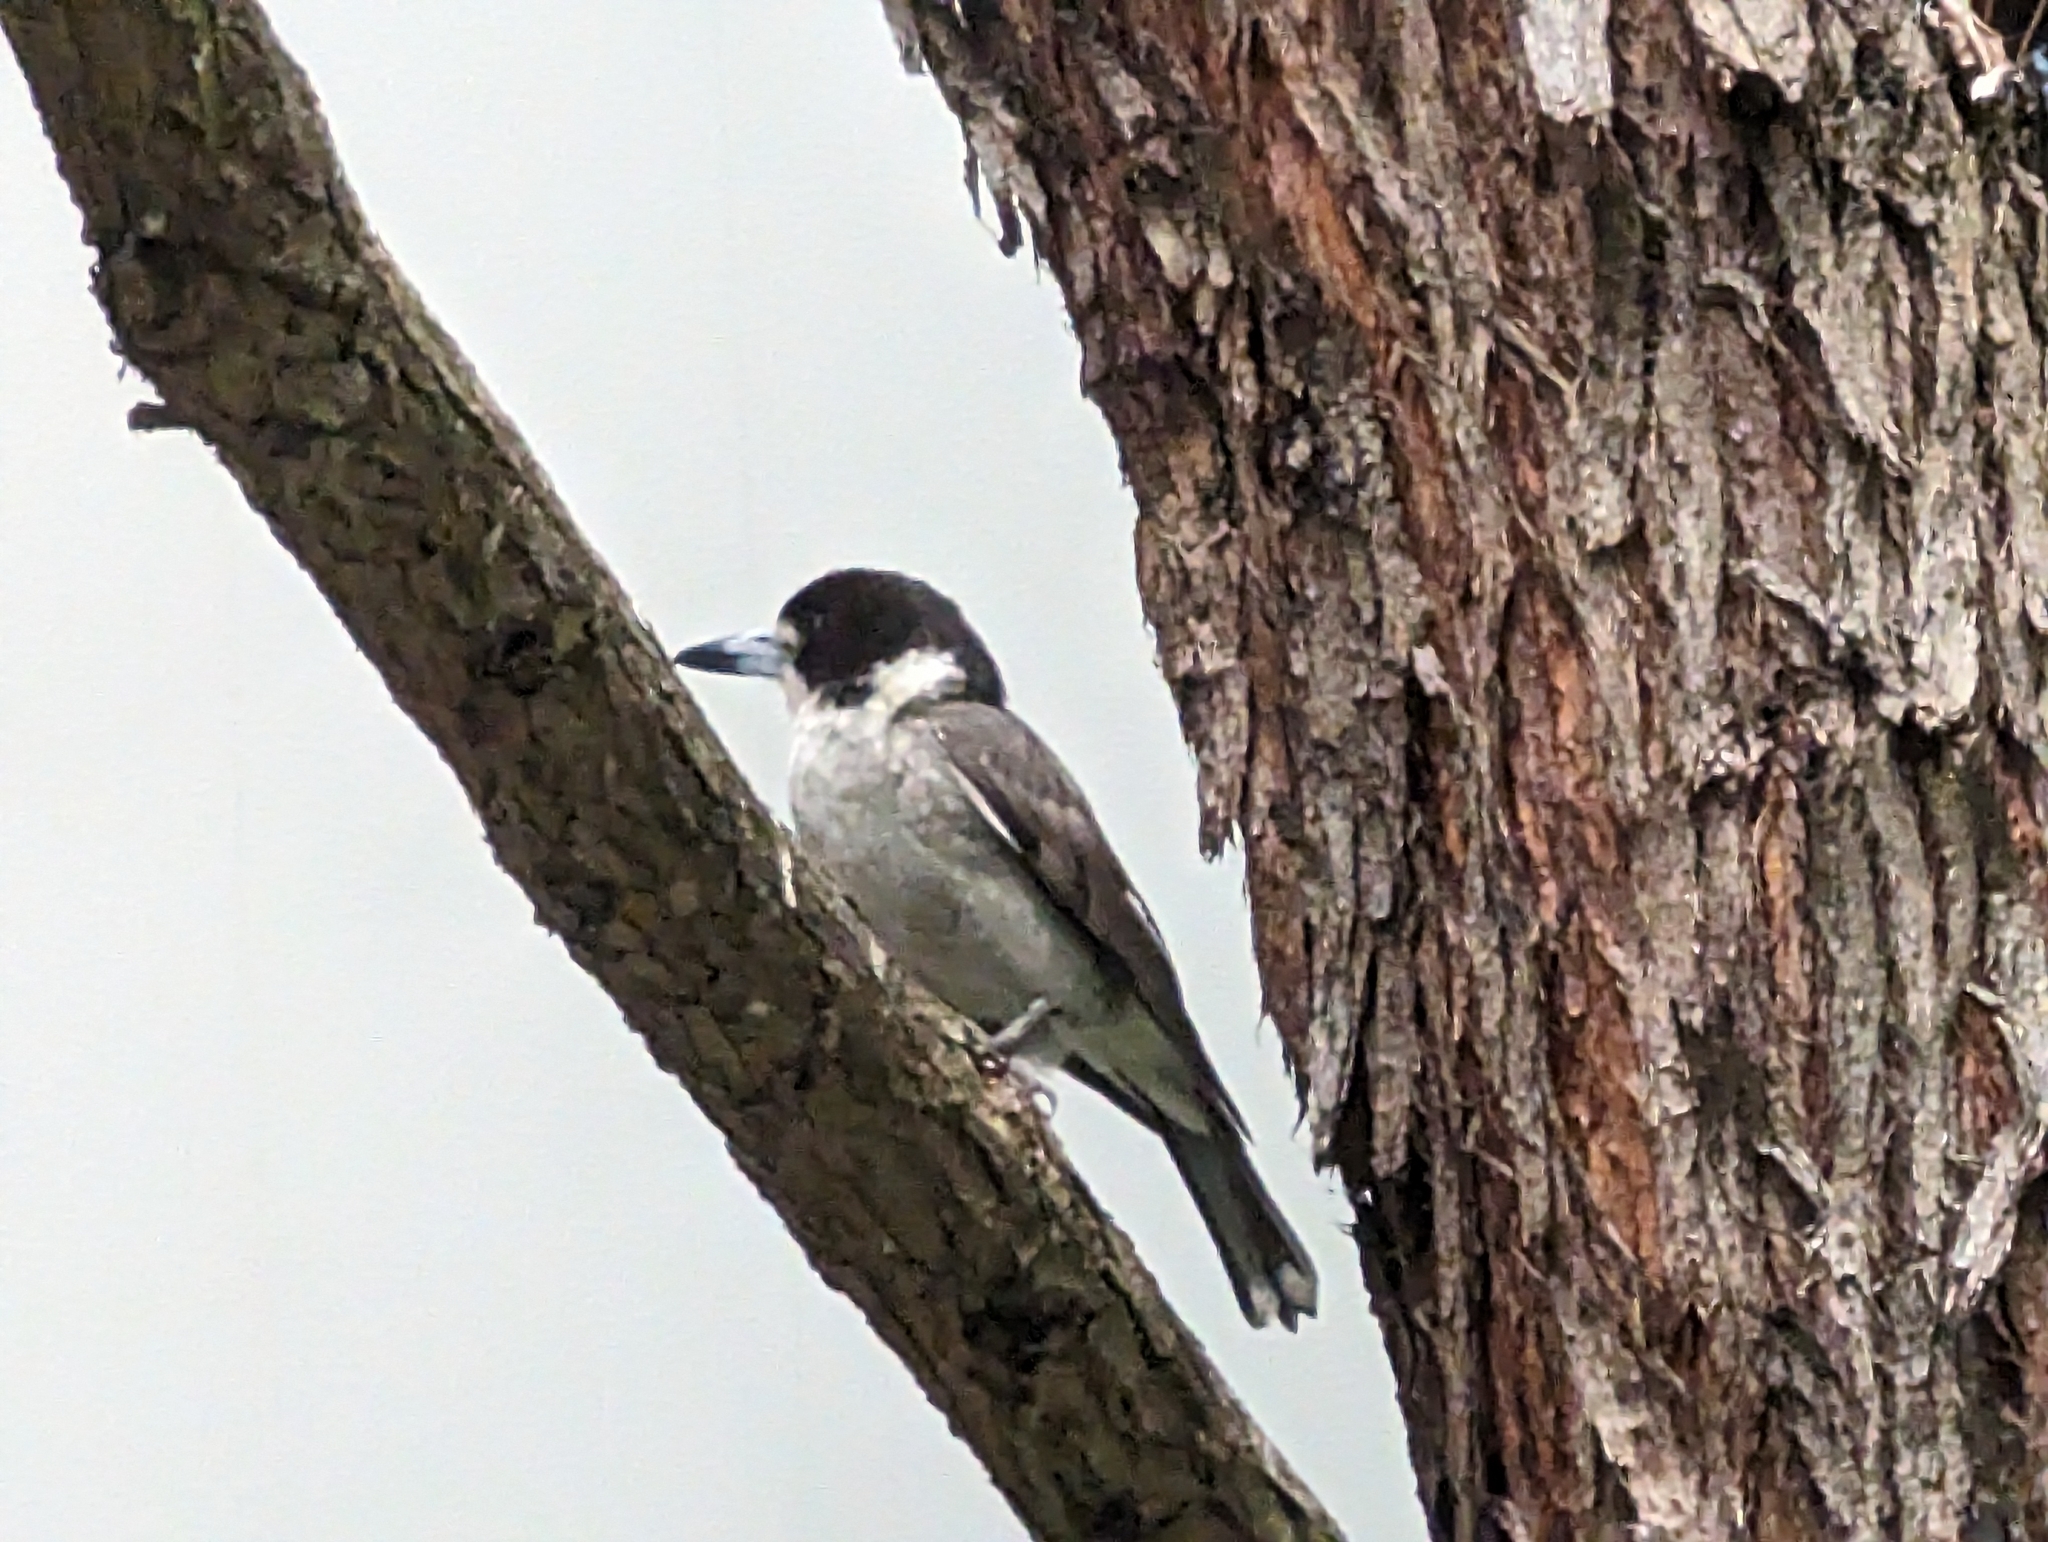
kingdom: Animalia
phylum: Chordata
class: Aves
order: Passeriformes
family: Cracticidae
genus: Cracticus
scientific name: Cracticus torquatus
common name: Grey butcherbird
